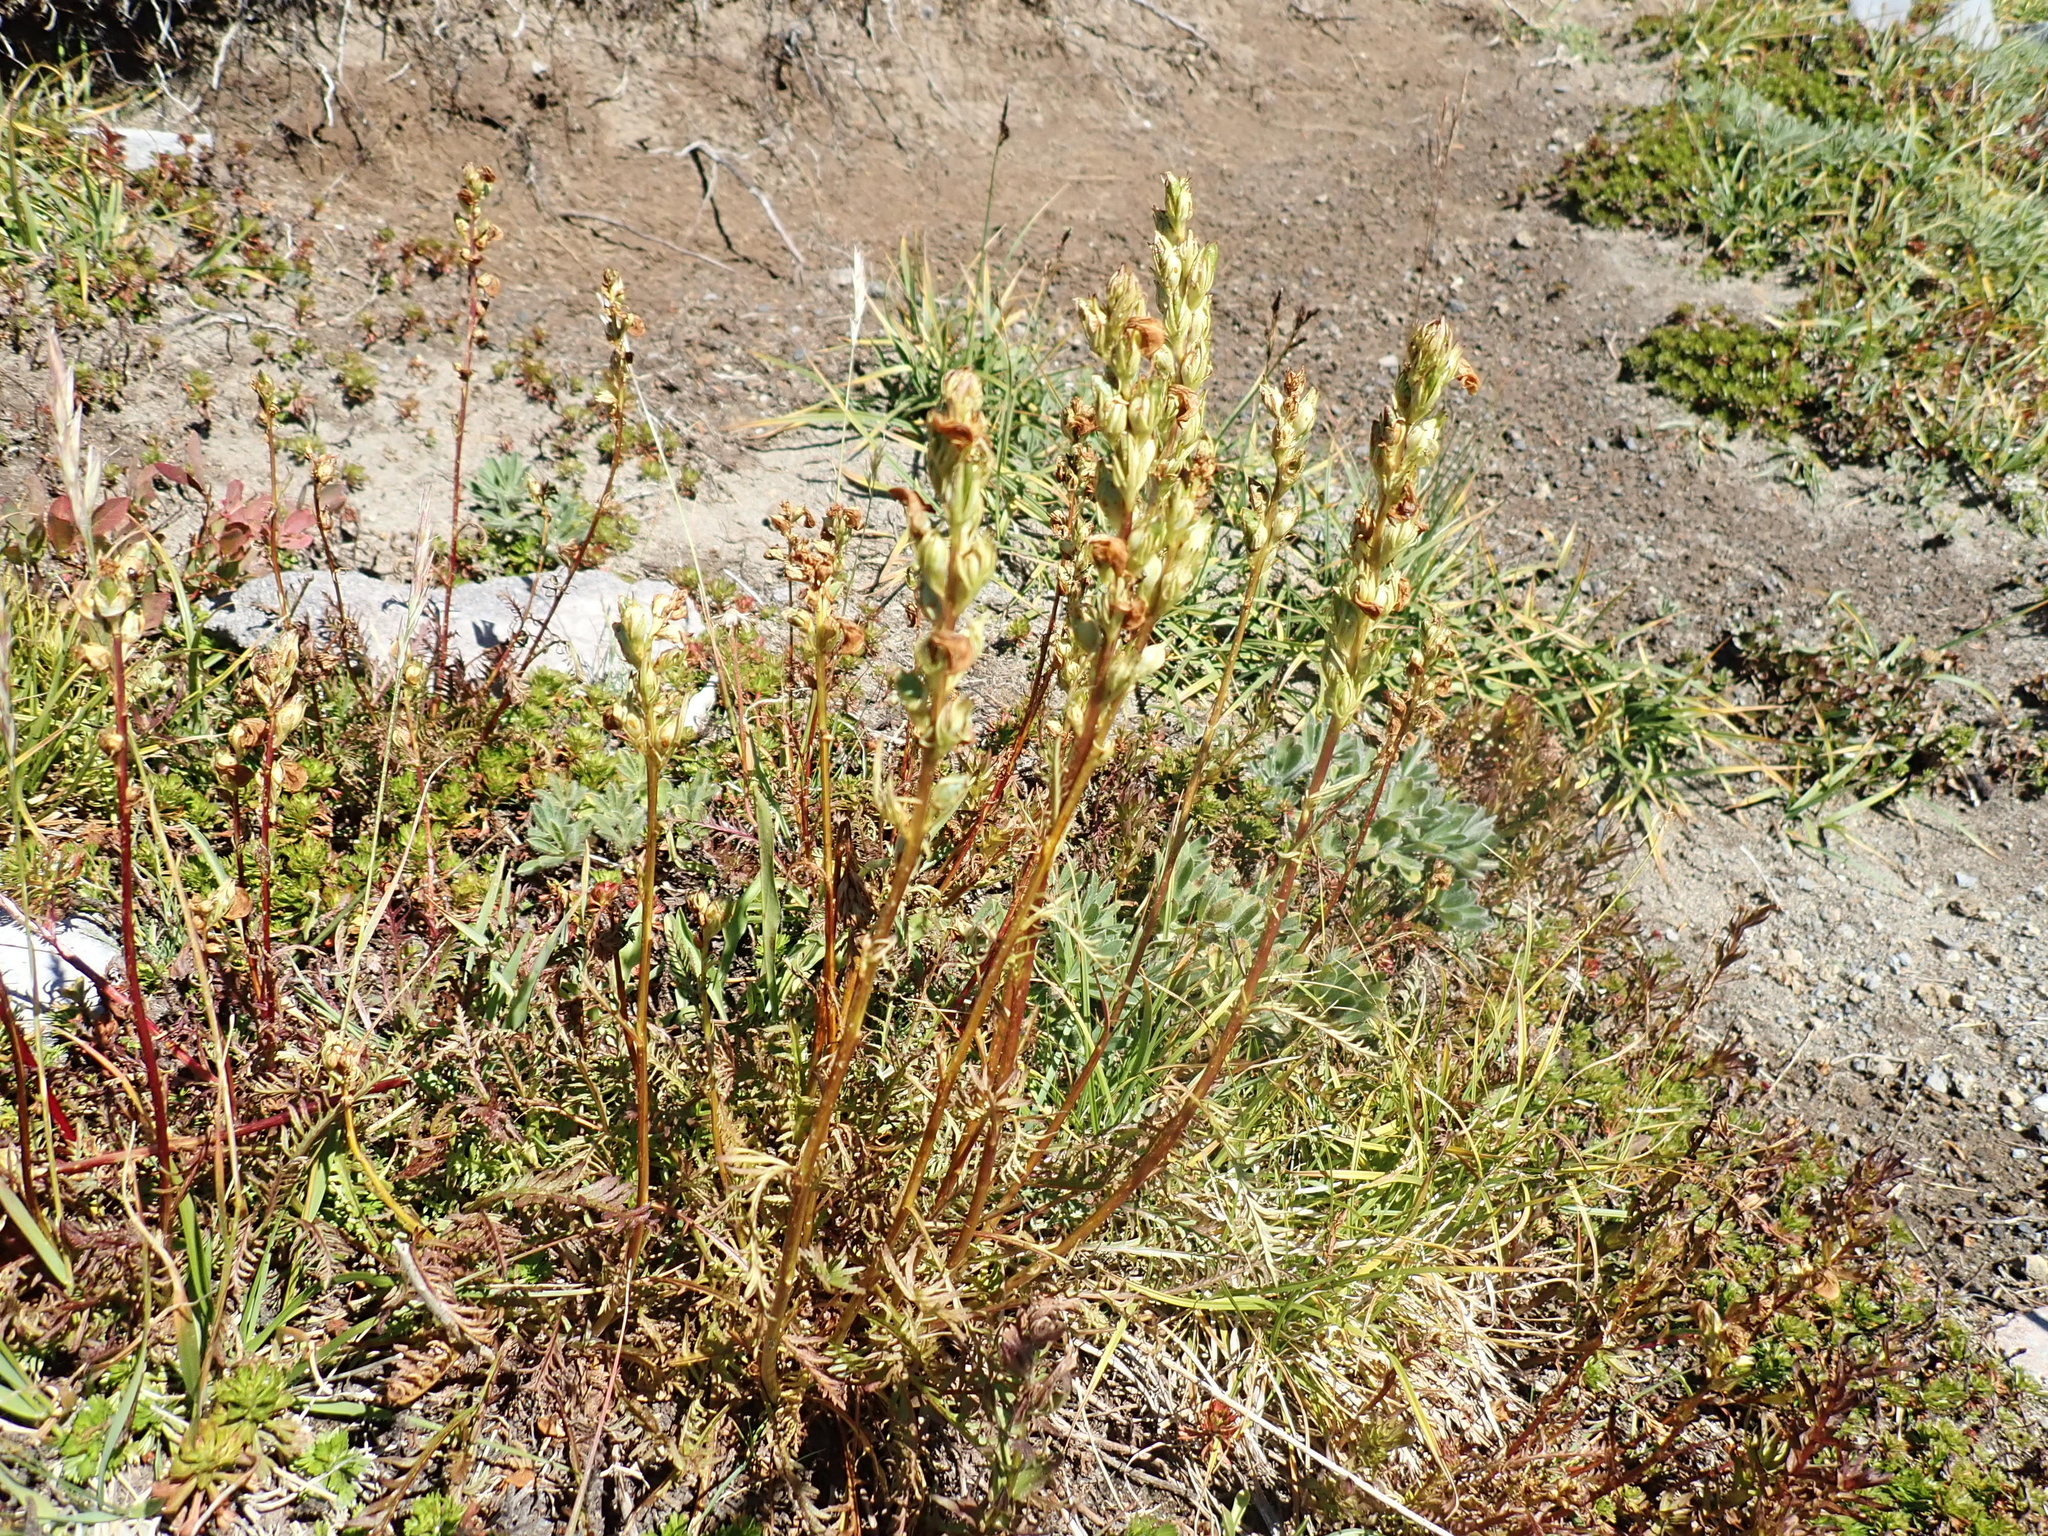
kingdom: Plantae
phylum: Tracheophyta
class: Magnoliopsida
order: Lamiales
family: Orobanchaceae
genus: Pedicularis
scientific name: Pedicularis contorta
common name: Coiled lousewort
